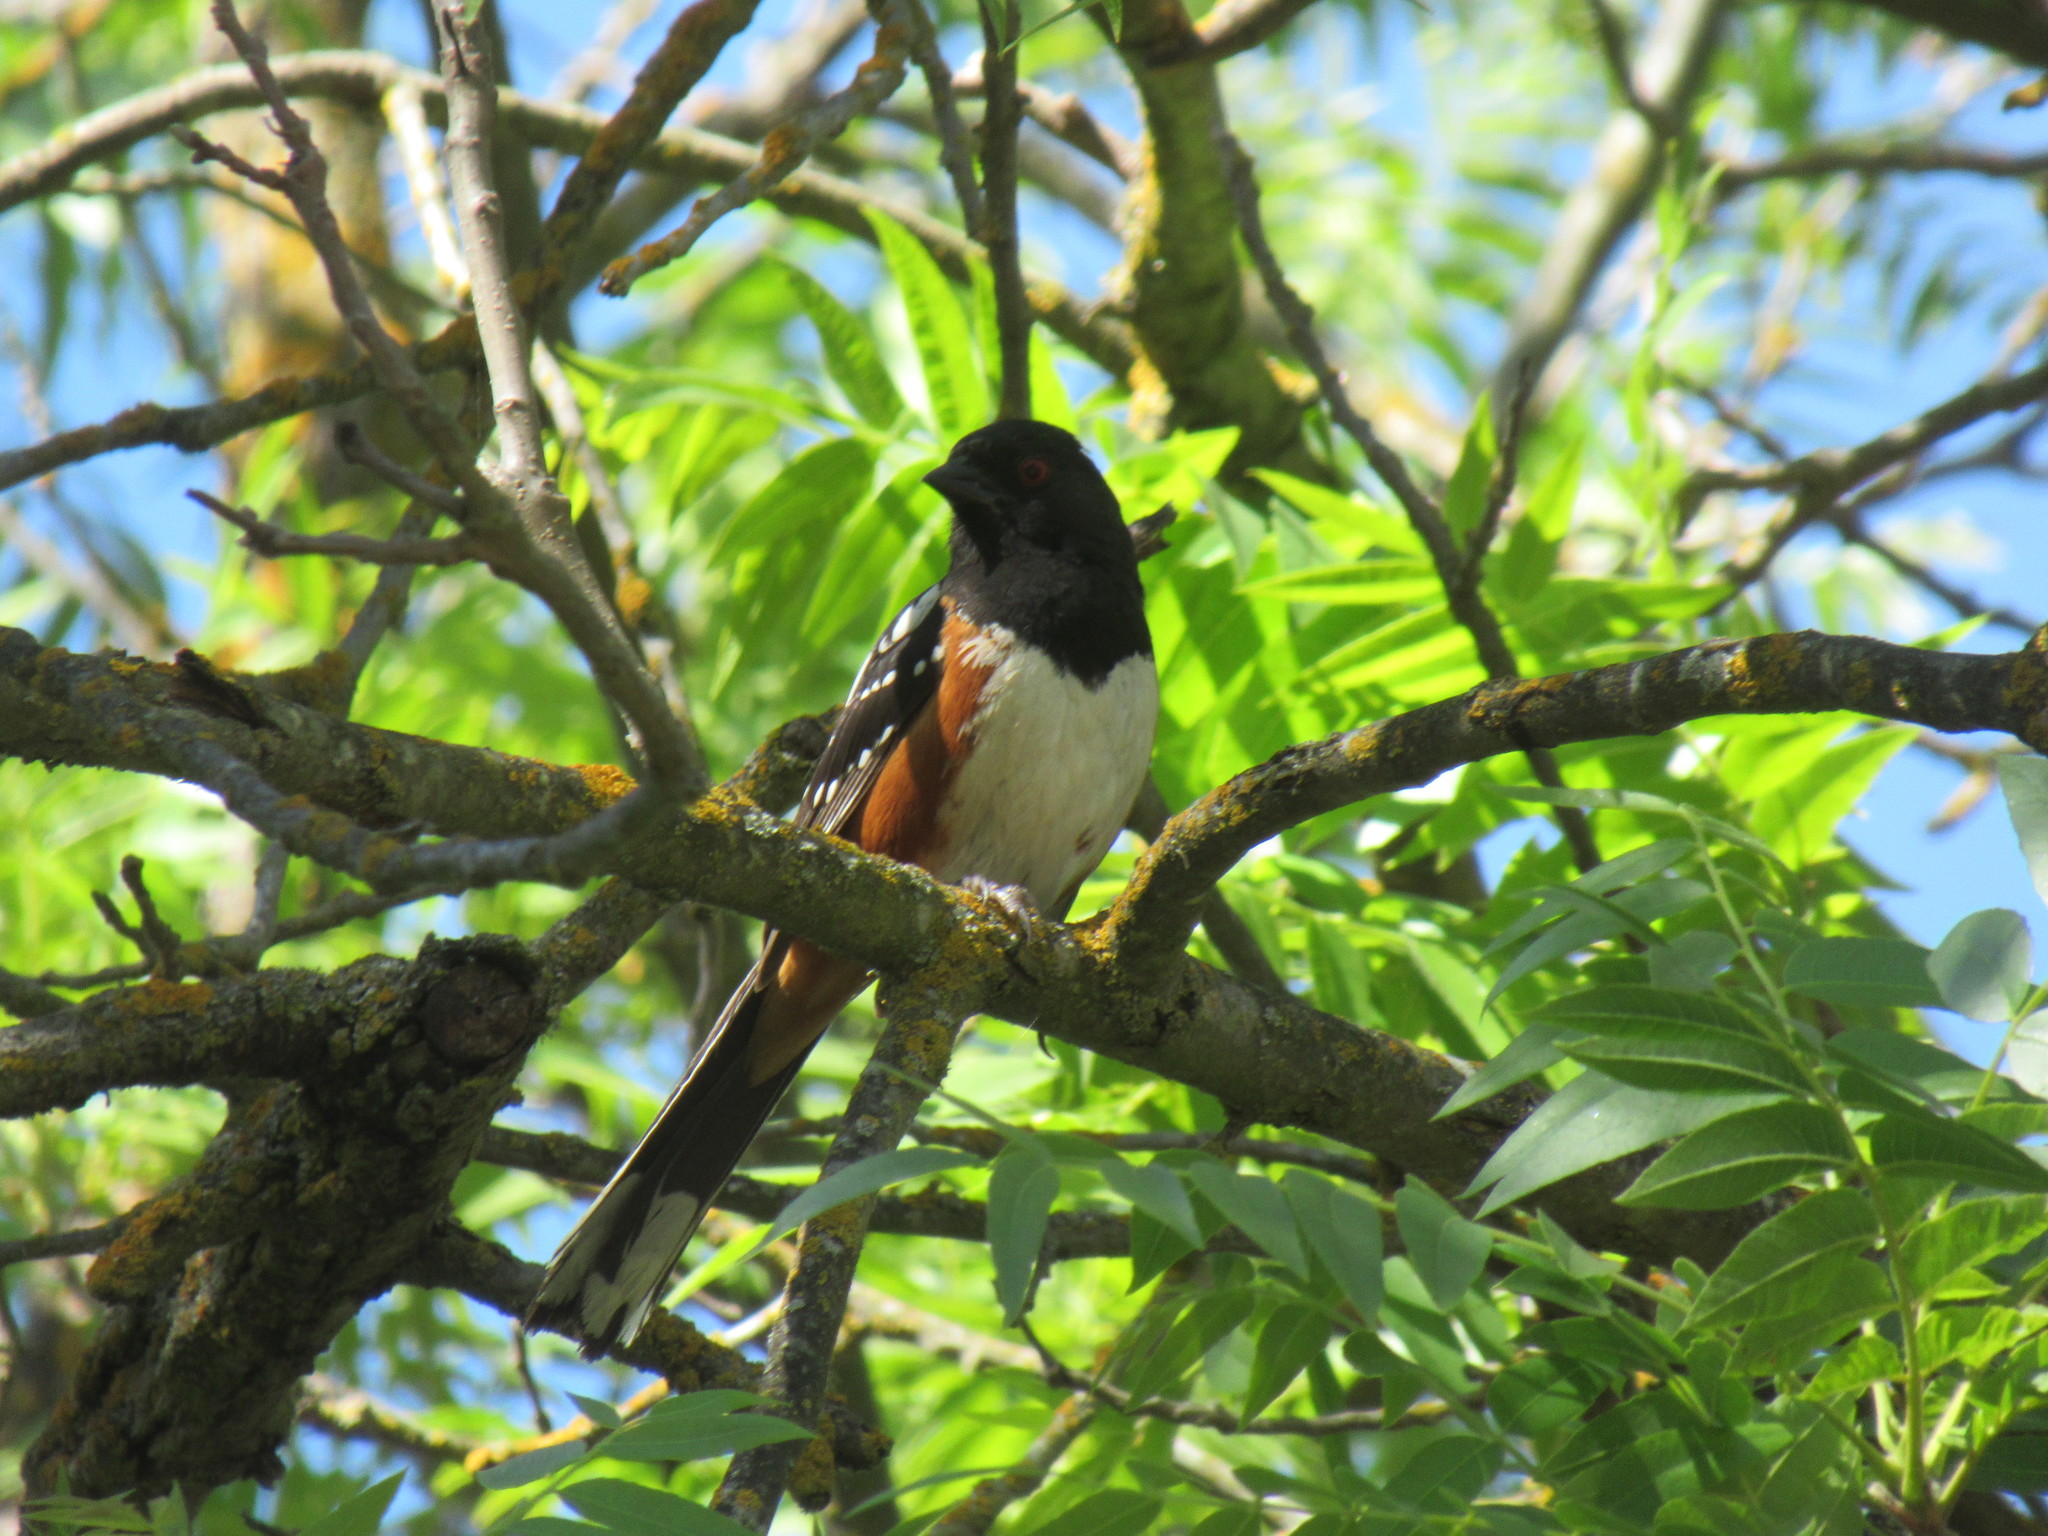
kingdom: Animalia
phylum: Chordata
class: Aves
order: Passeriformes
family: Passerellidae
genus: Pipilo
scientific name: Pipilo maculatus
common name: Spotted towhee
